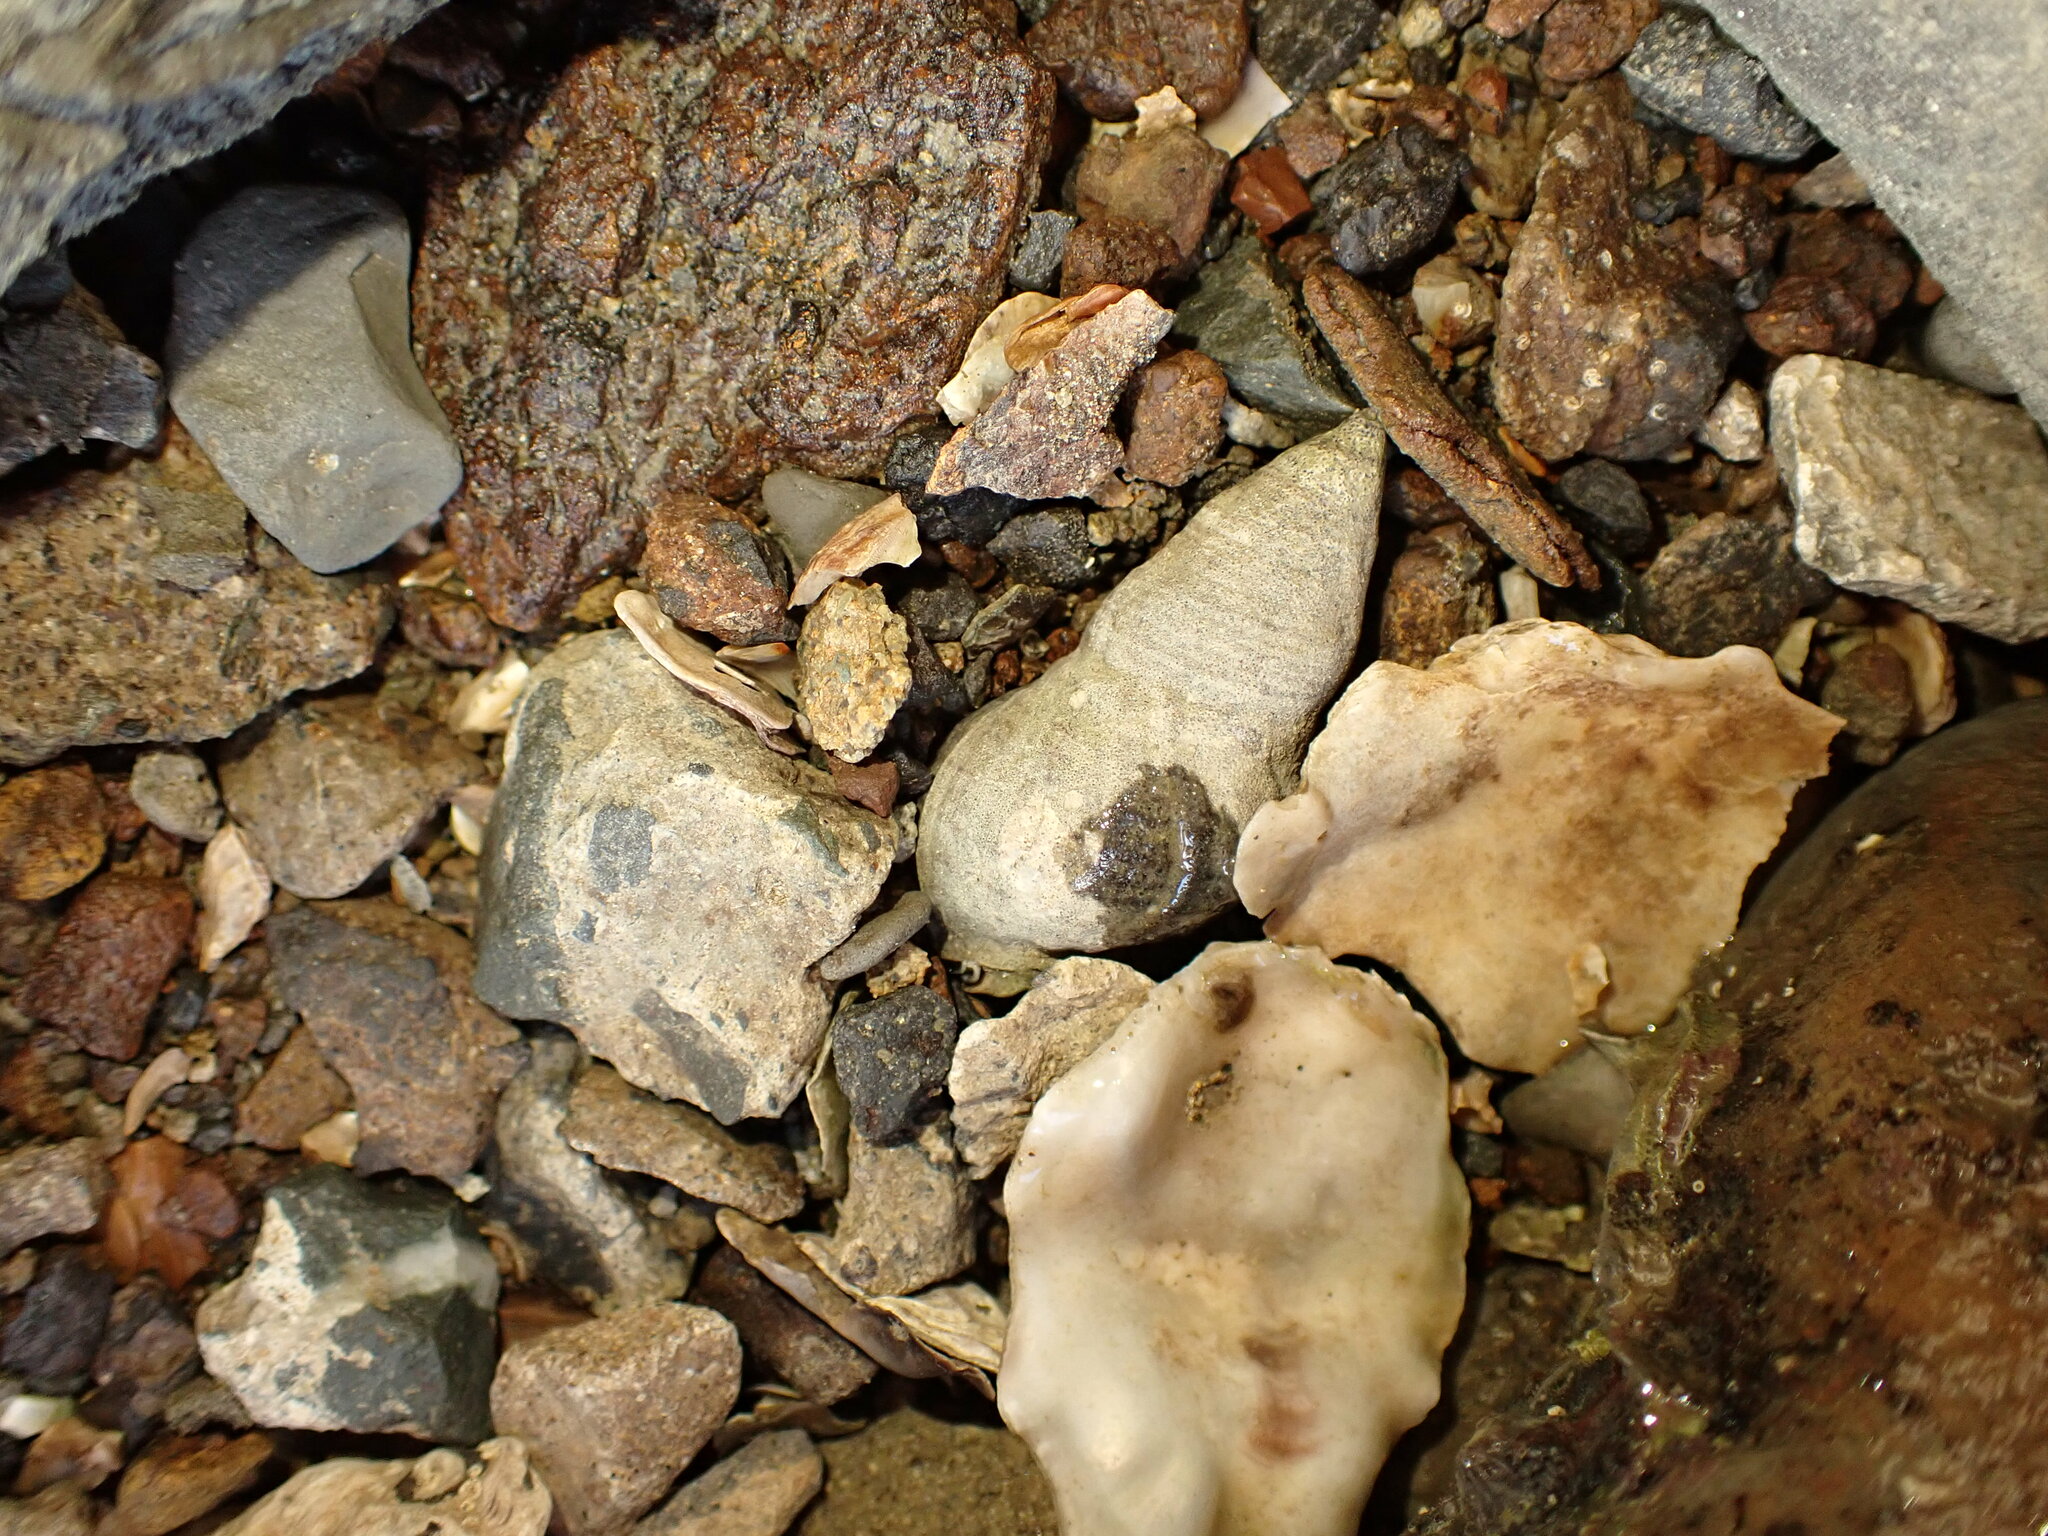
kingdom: Animalia
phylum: Mollusca
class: Gastropoda
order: Neogastropoda
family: Cominellidae
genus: Cominella
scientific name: Cominella virgata
